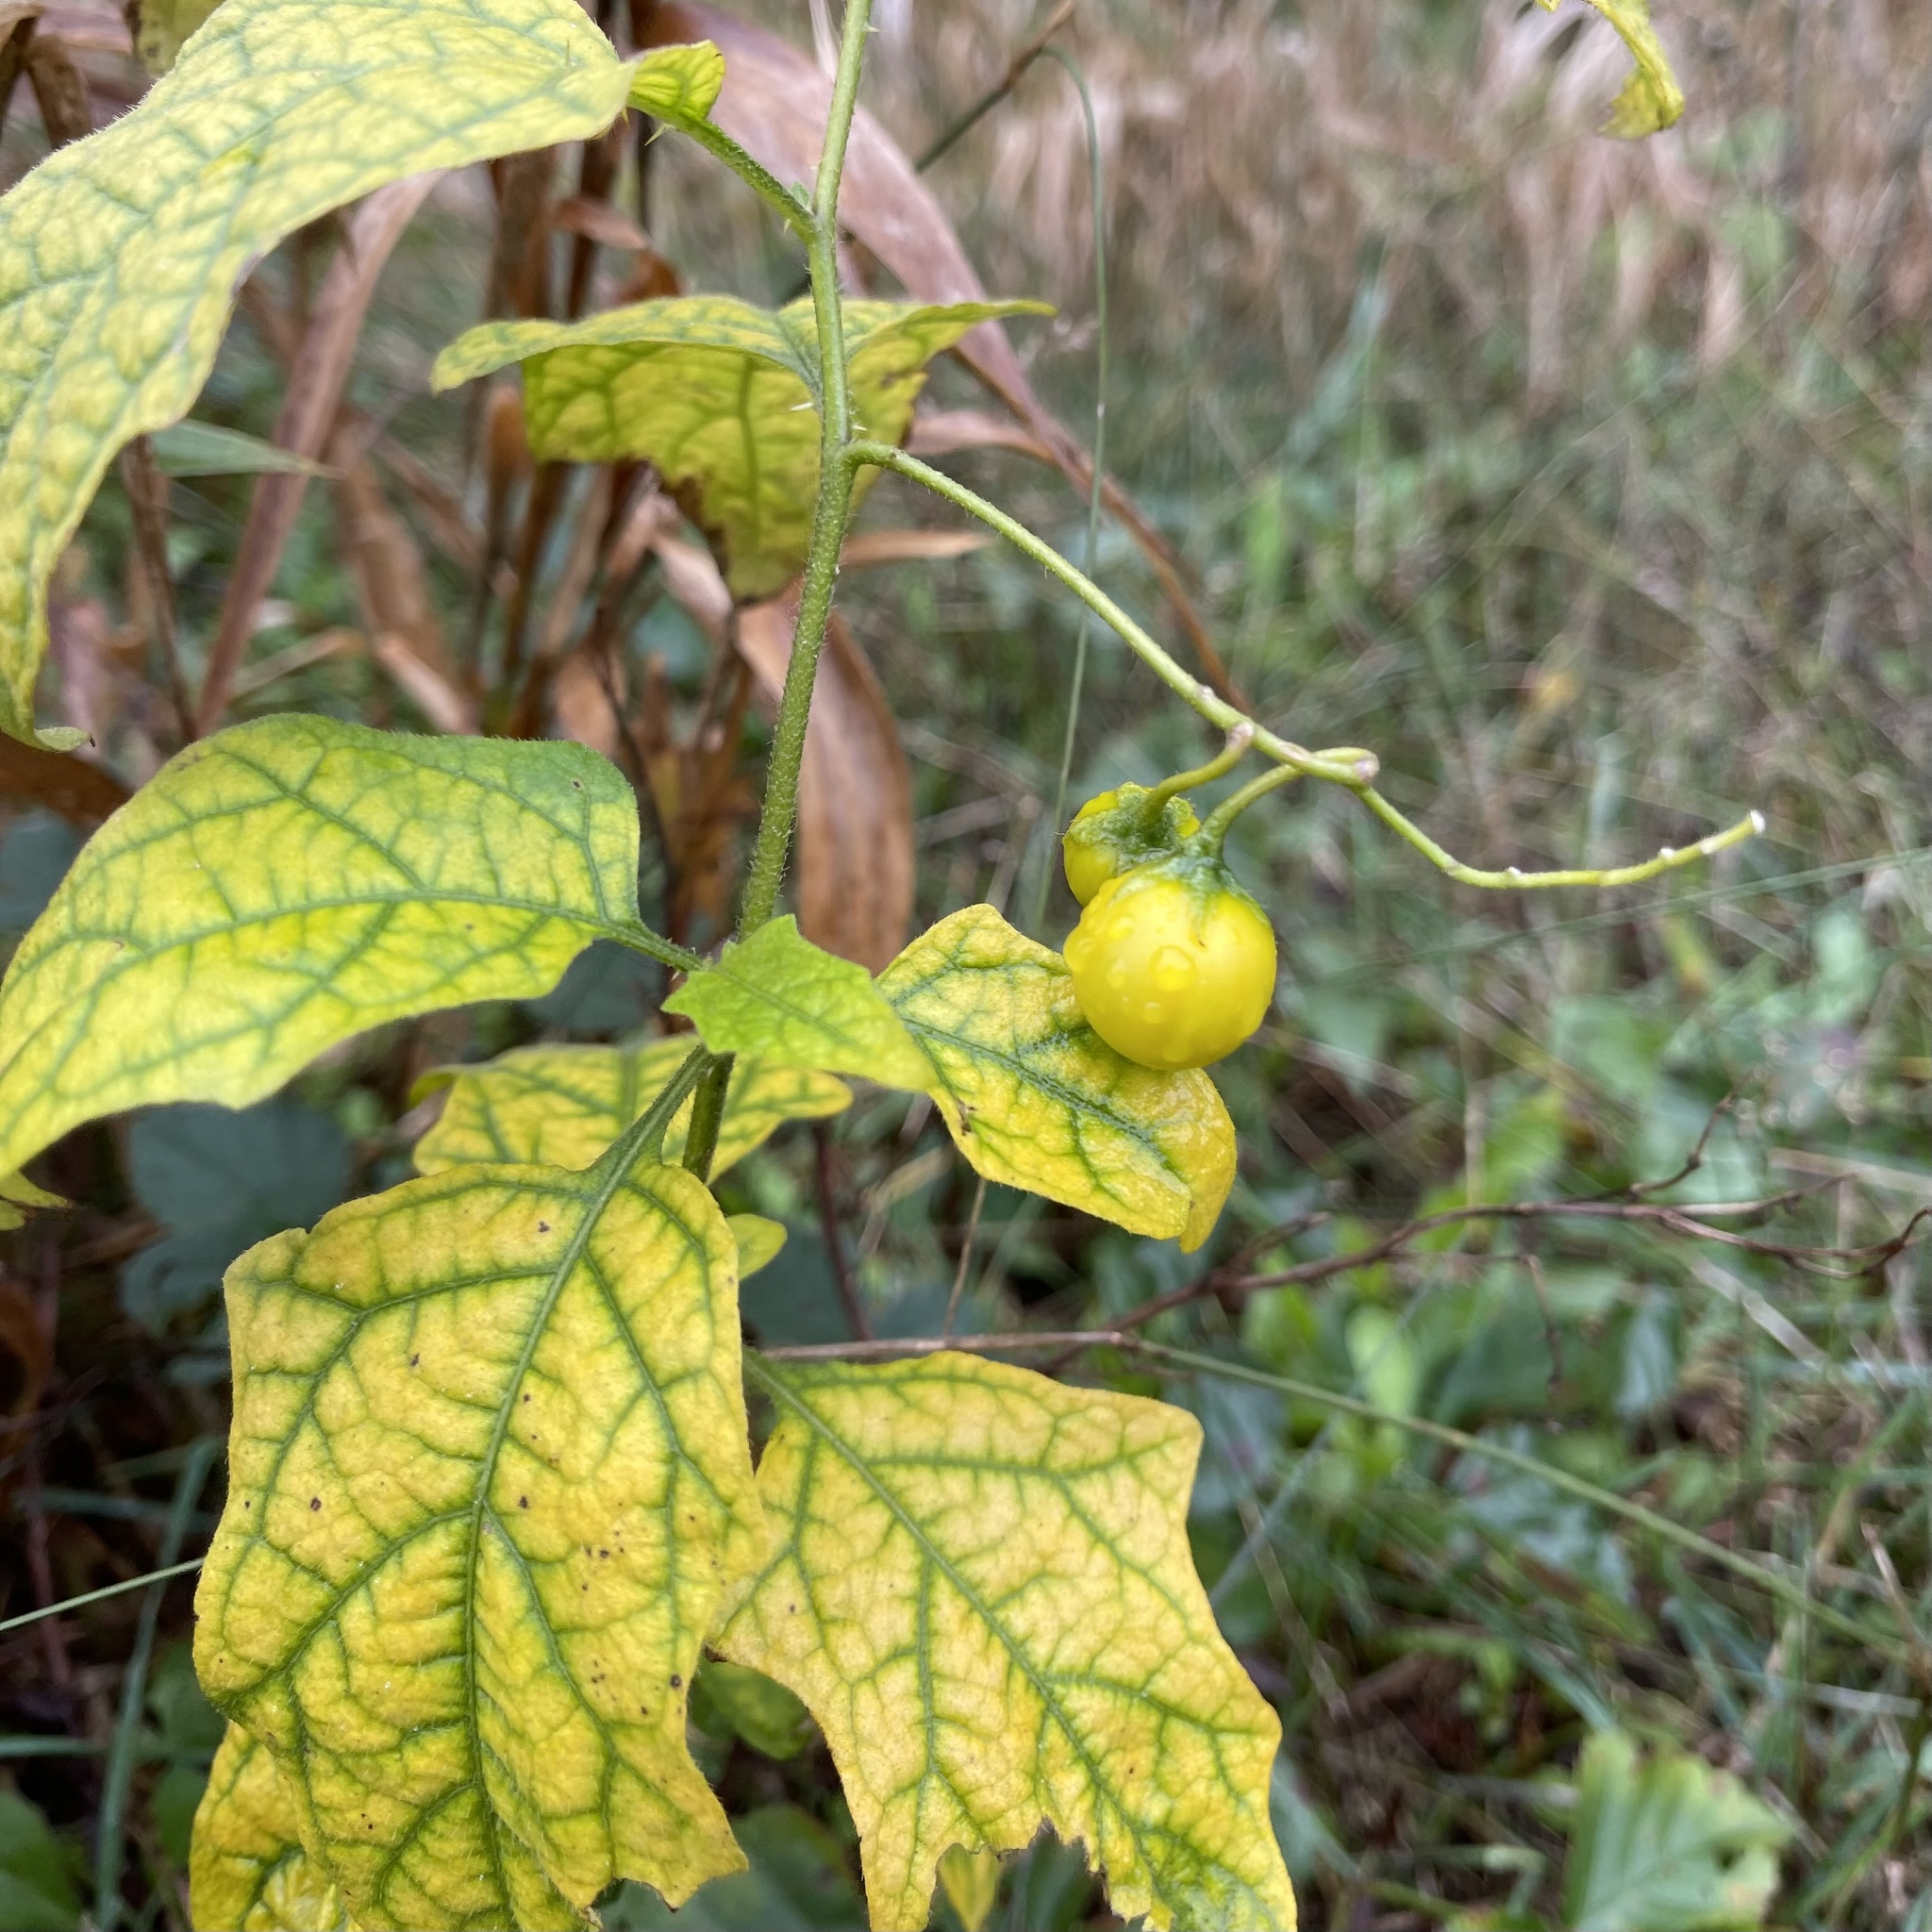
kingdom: Plantae
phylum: Tracheophyta
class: Magnoliopsida
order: Solanales
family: Solanaceae
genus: Solanum
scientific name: Solanum carolinense
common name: Horse-nettle
